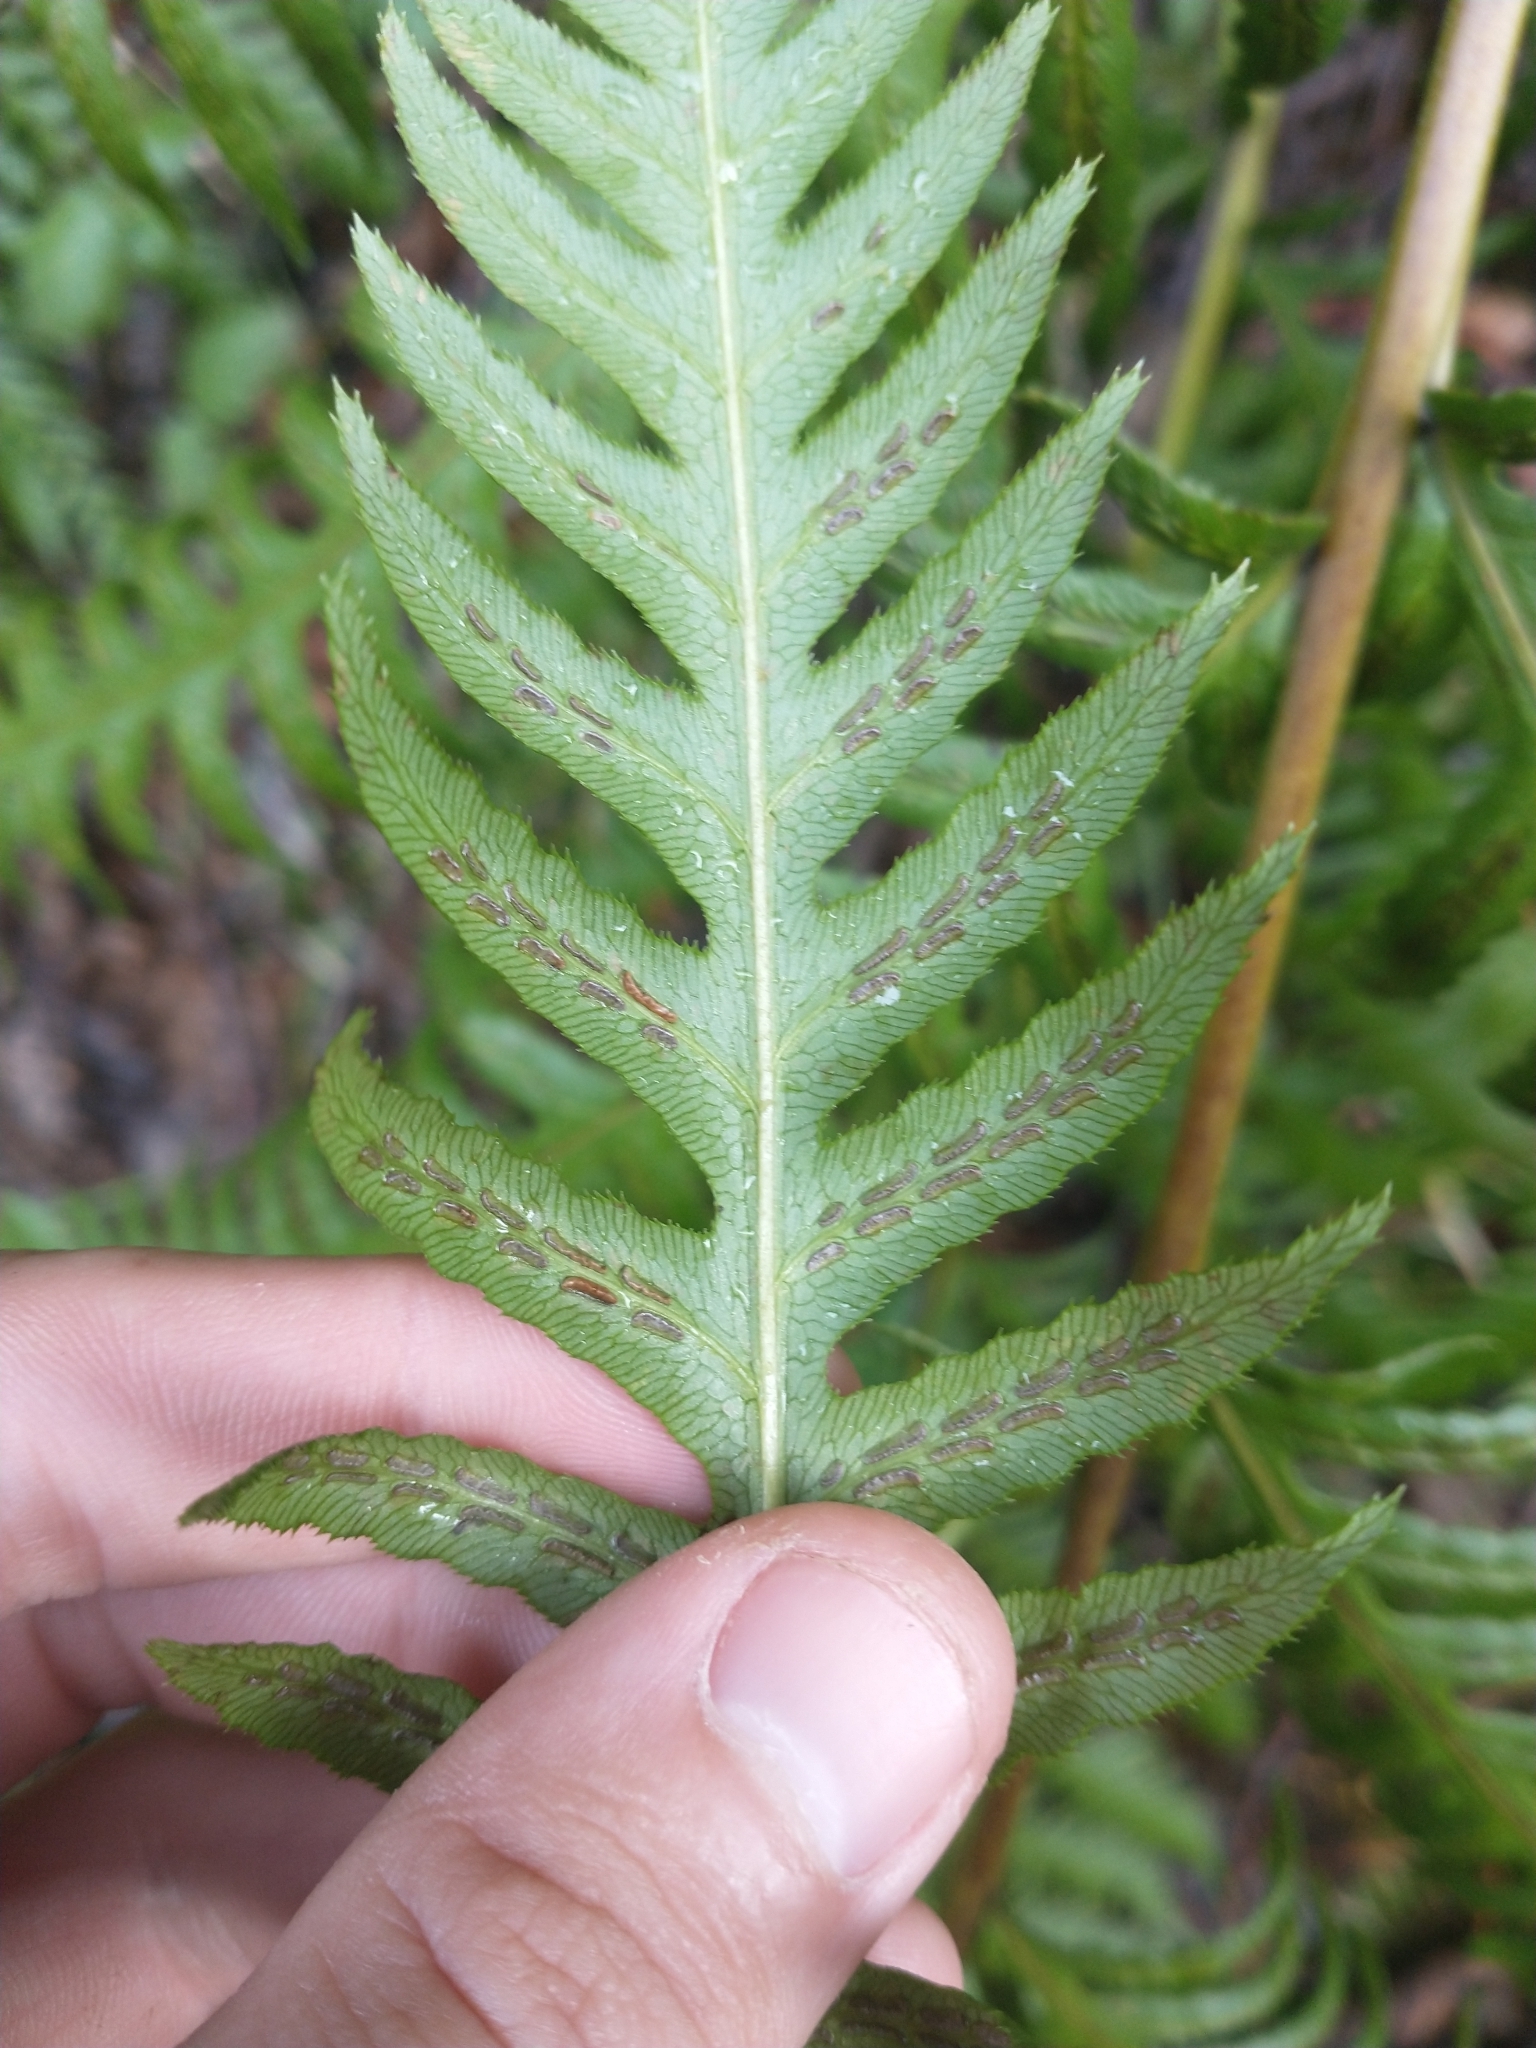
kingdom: Plantae
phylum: Tracheophyta
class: Polypodiopsida
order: Polypodiales
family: Blechnaceae
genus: Woodwardia
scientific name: Woodwardia fimbriata
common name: Giant chain fern
